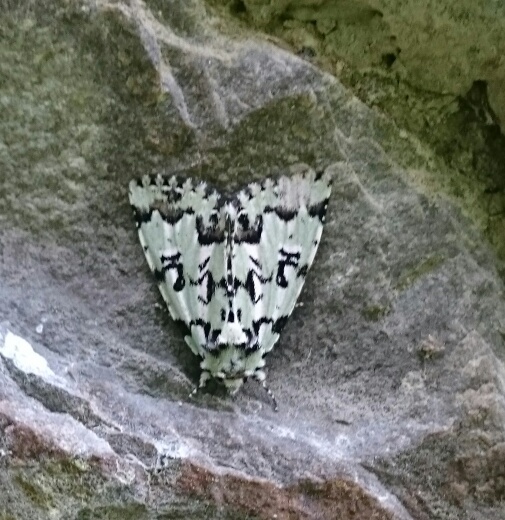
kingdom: Animalia
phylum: Arthropoda
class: Insecta
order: Lepidoptera
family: Noctuidae
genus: Moma
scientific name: Moma alpium
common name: Scarce merveille du jour
